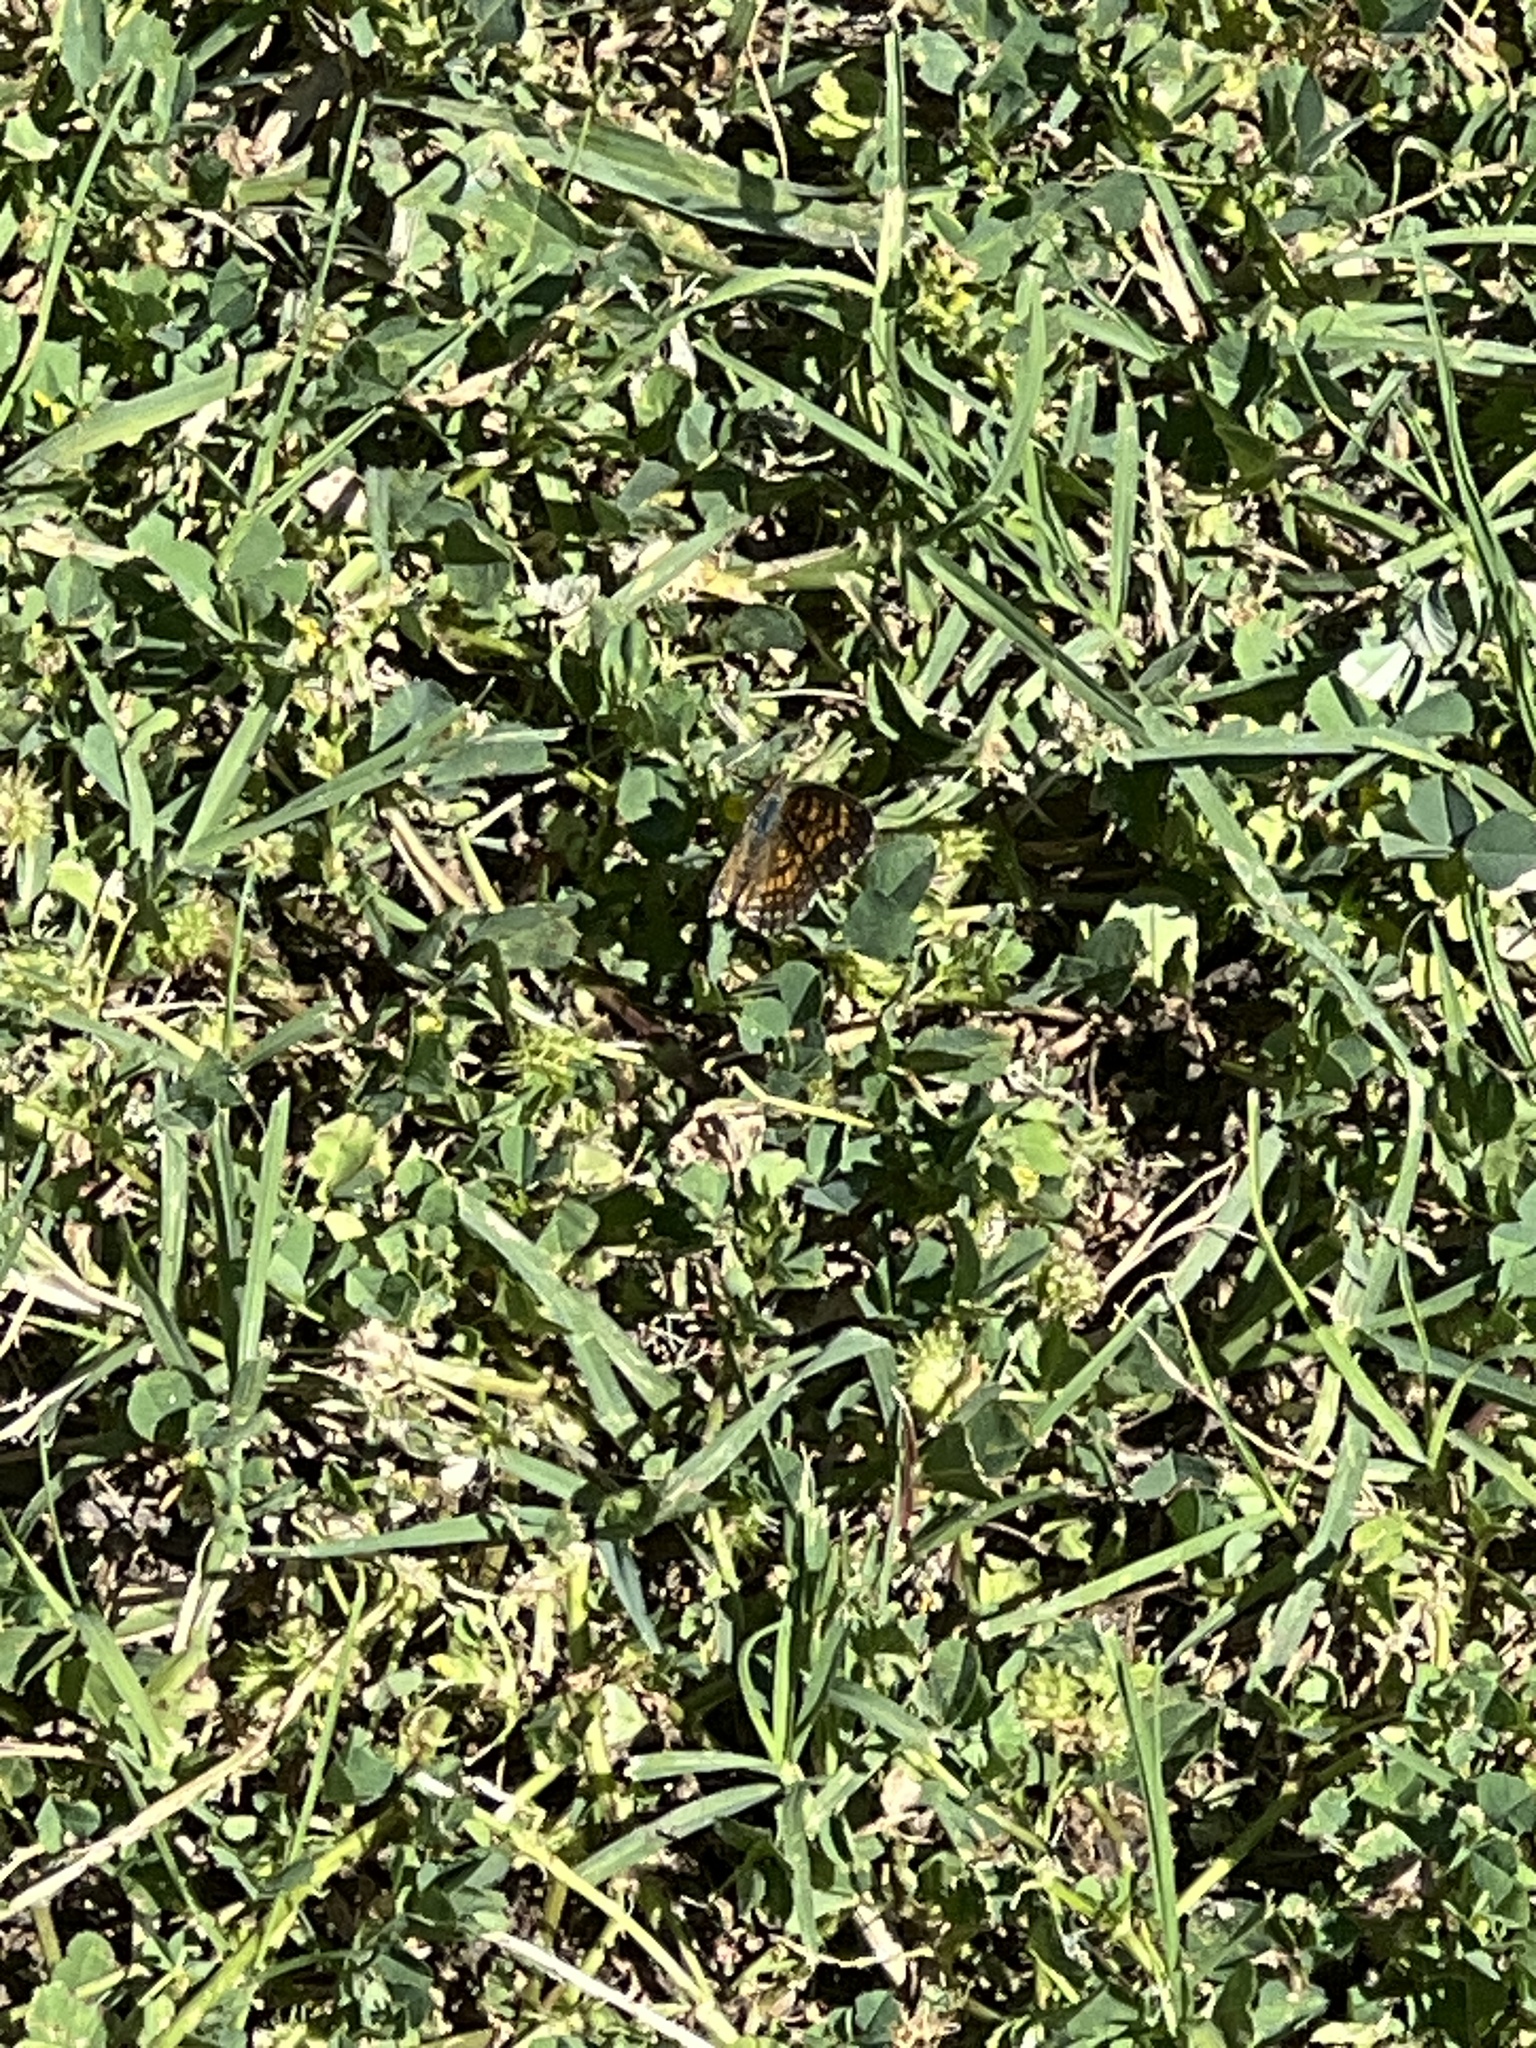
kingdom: Animalia
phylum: Arthropoda
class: Insecta
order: Lepidoptera
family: Nymphalidae
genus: Phyciodes
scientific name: Phyciodes vesta
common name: Vesta crescent
